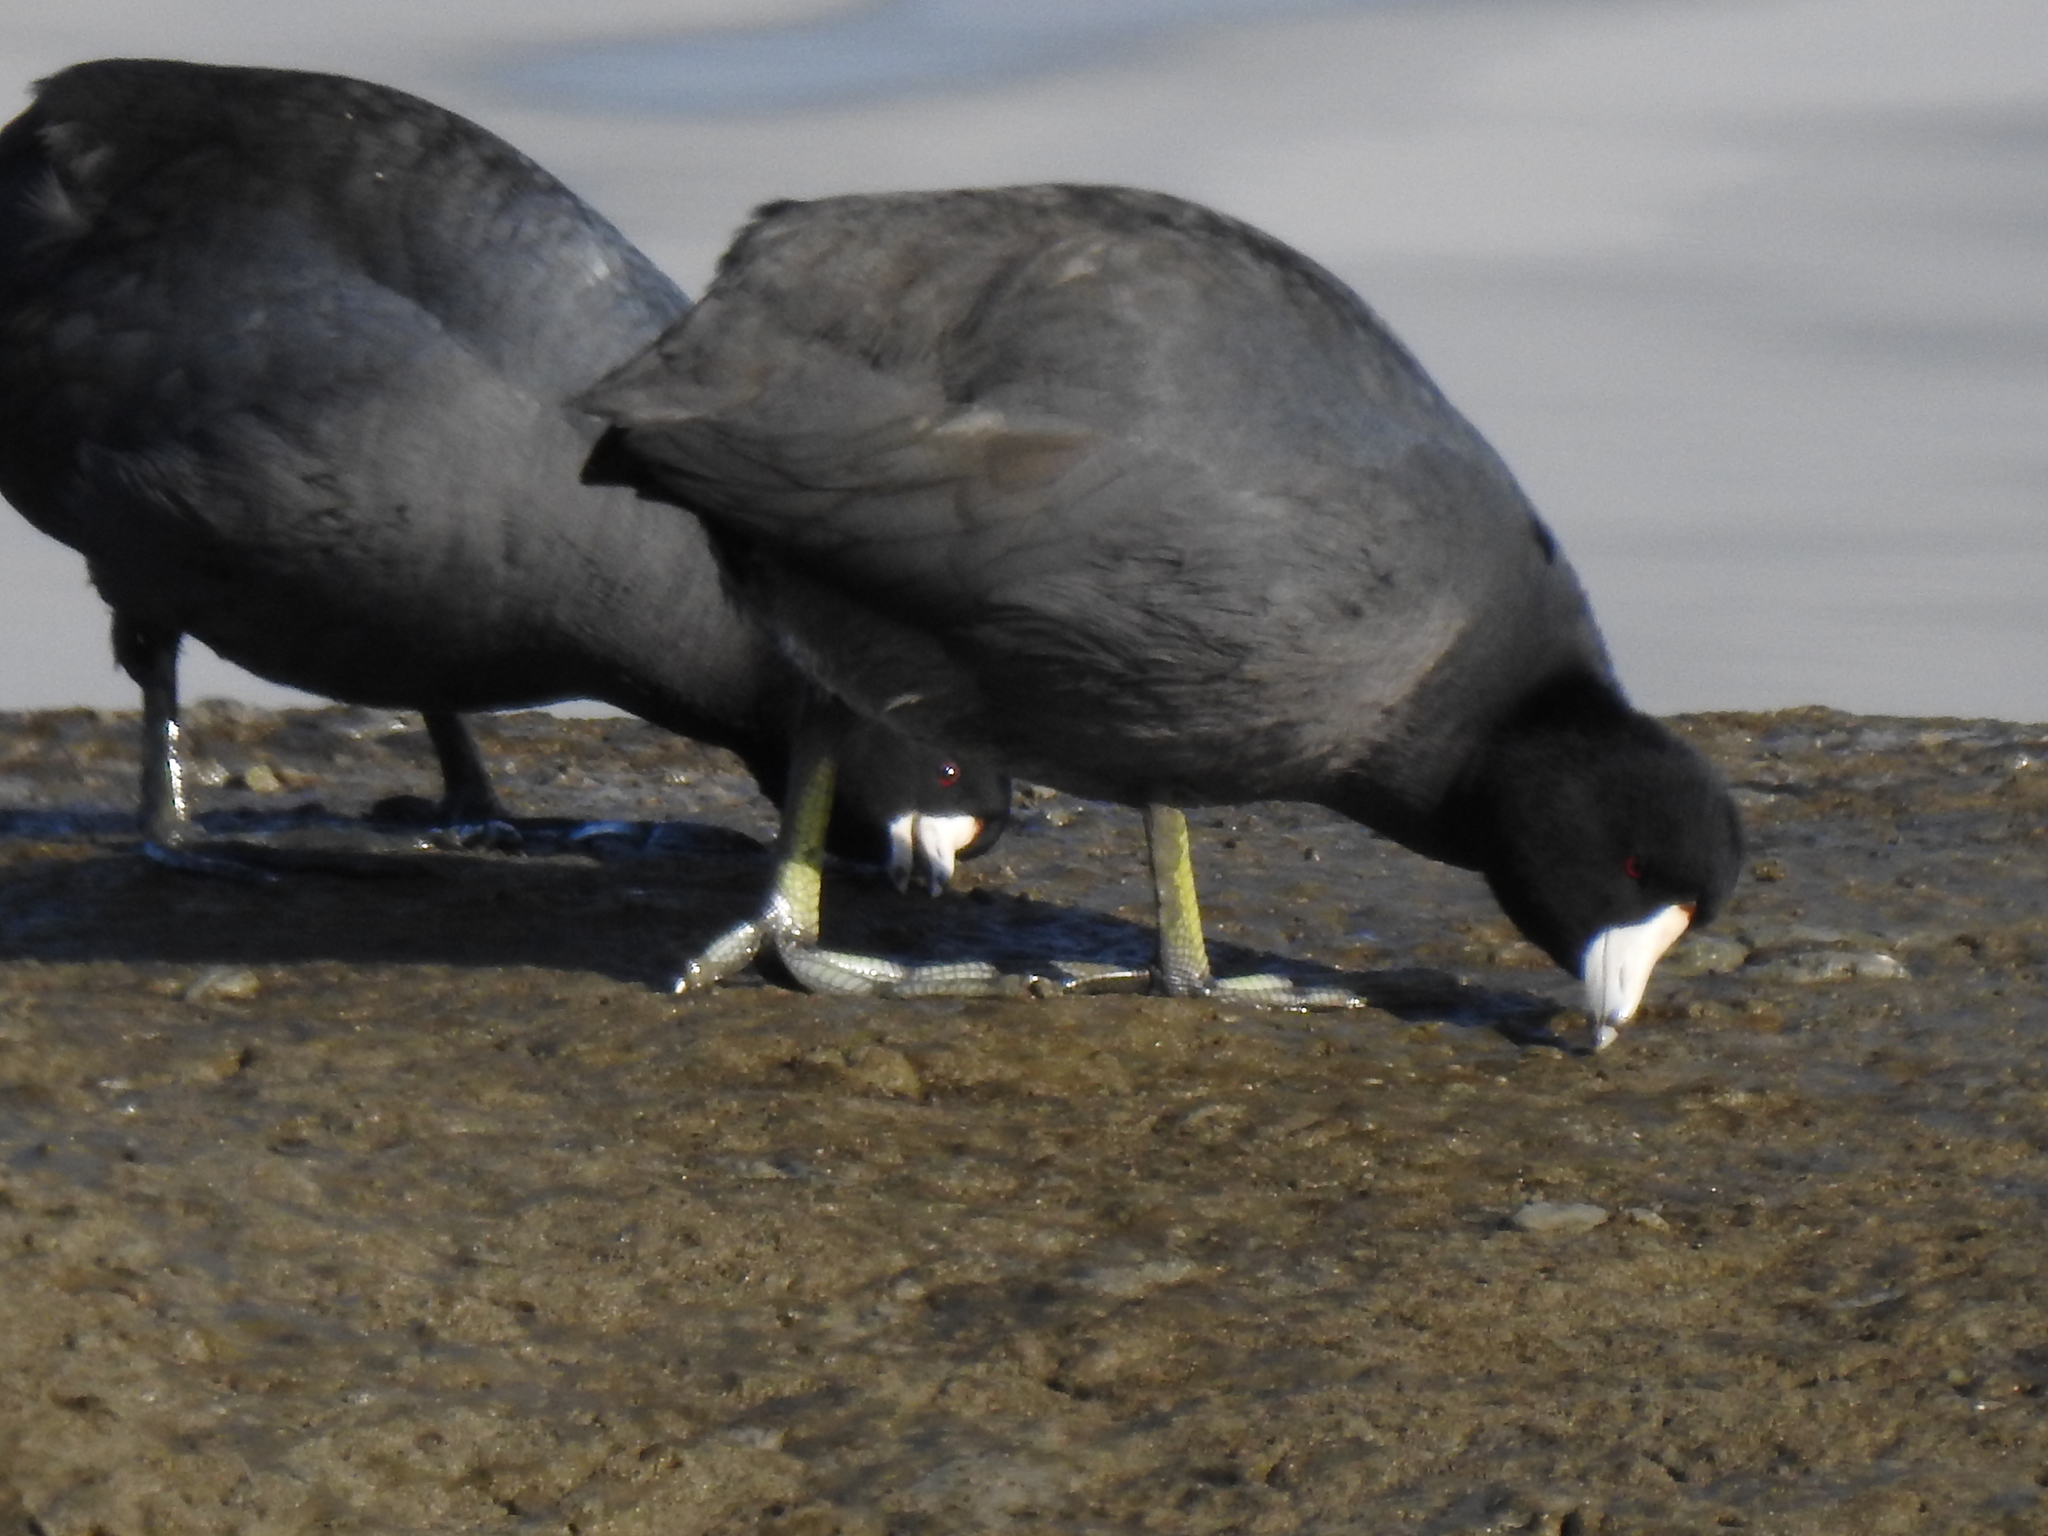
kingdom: Animalia
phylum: Chordata
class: Aves
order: Gruiformes
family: Rallidae
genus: Fulica
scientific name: Fulica americana
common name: American coot
